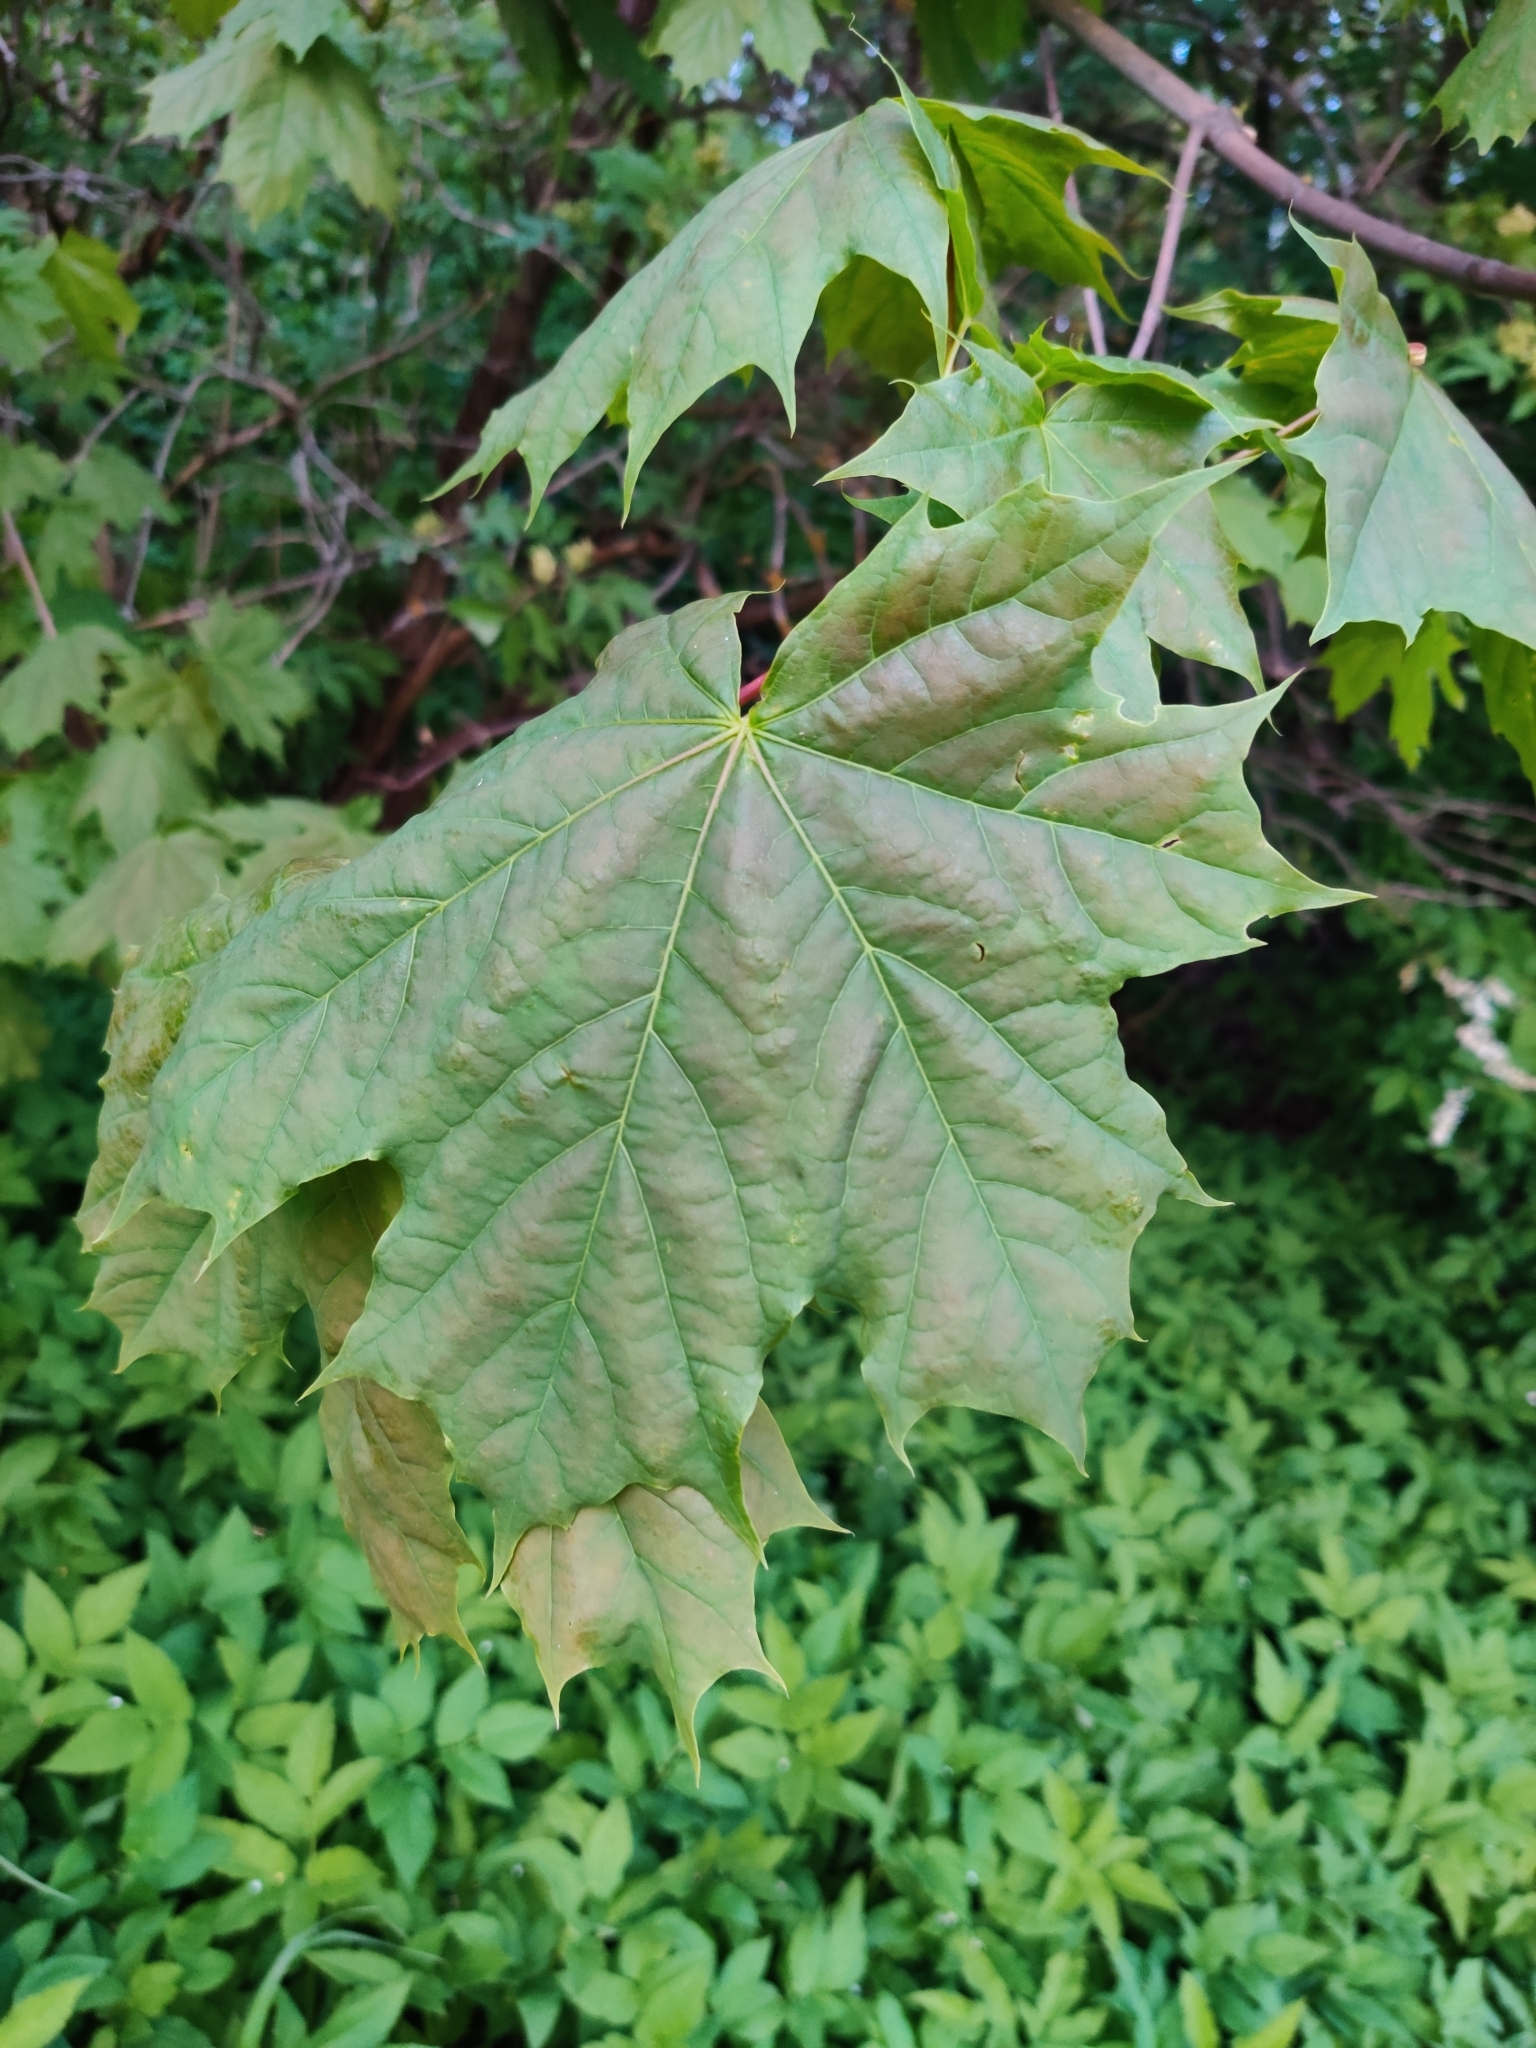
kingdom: Plantae
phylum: Tracheophyta
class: Magnoliopsida
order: Sapindales
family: Sapindaceae
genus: Acer
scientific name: Acer platanoides
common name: Norway maple
